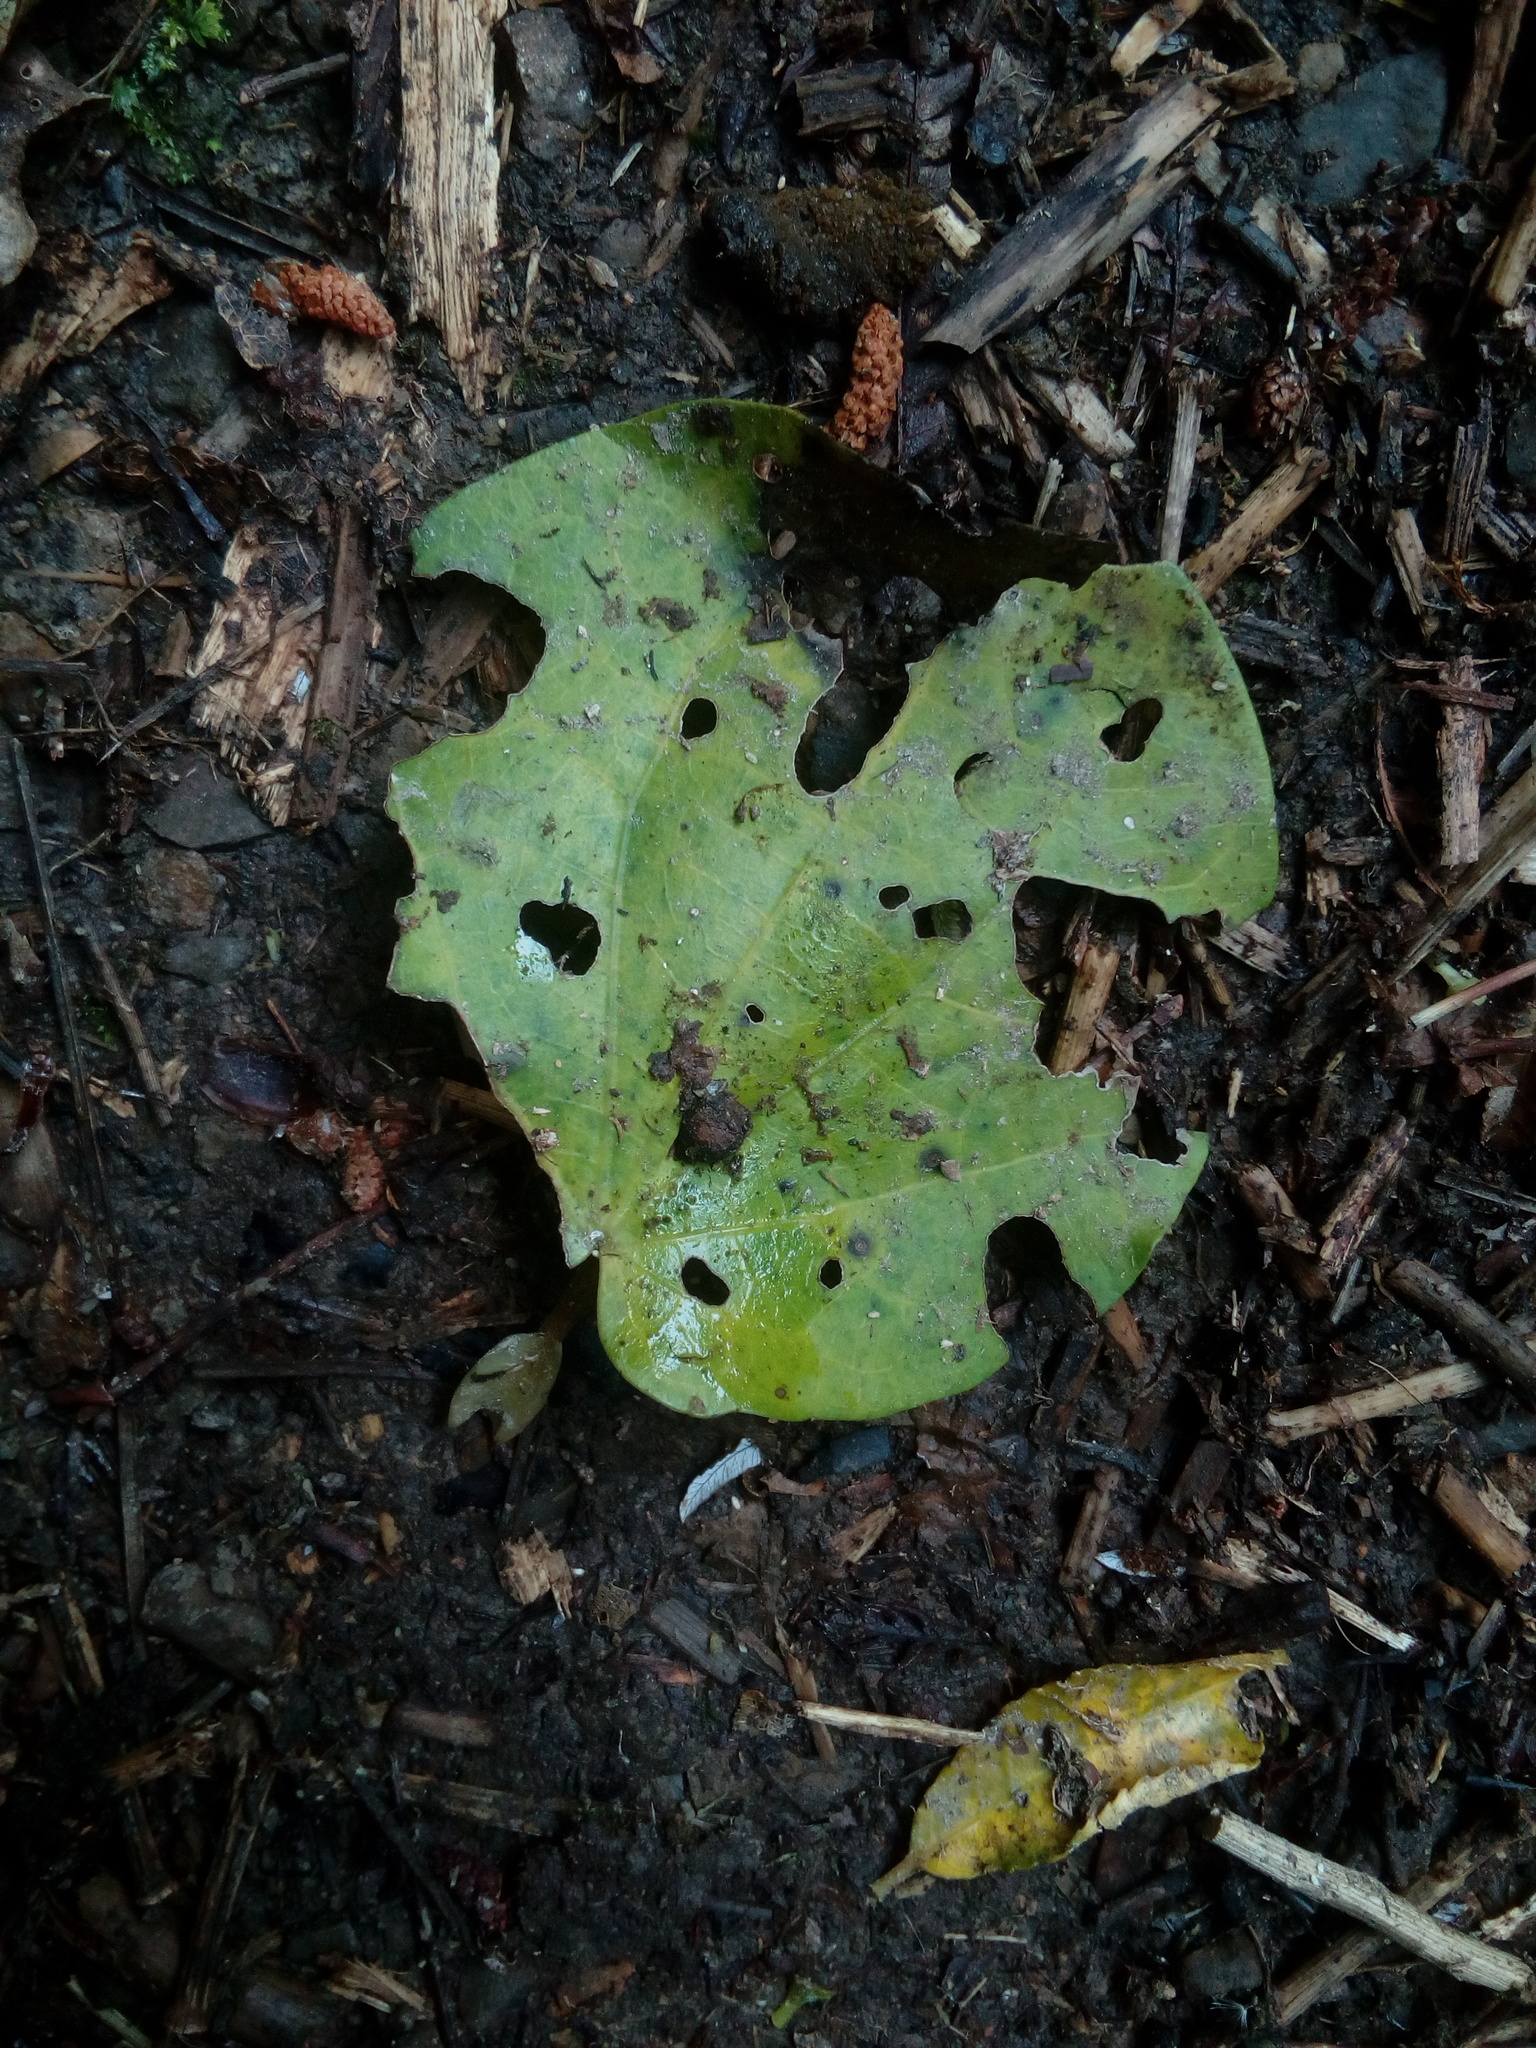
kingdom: Plantae
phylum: Tracheophyta
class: Magnoliopsida
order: Piperales
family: Piperaceae
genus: Macropiper
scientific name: Macropiper excelsum
